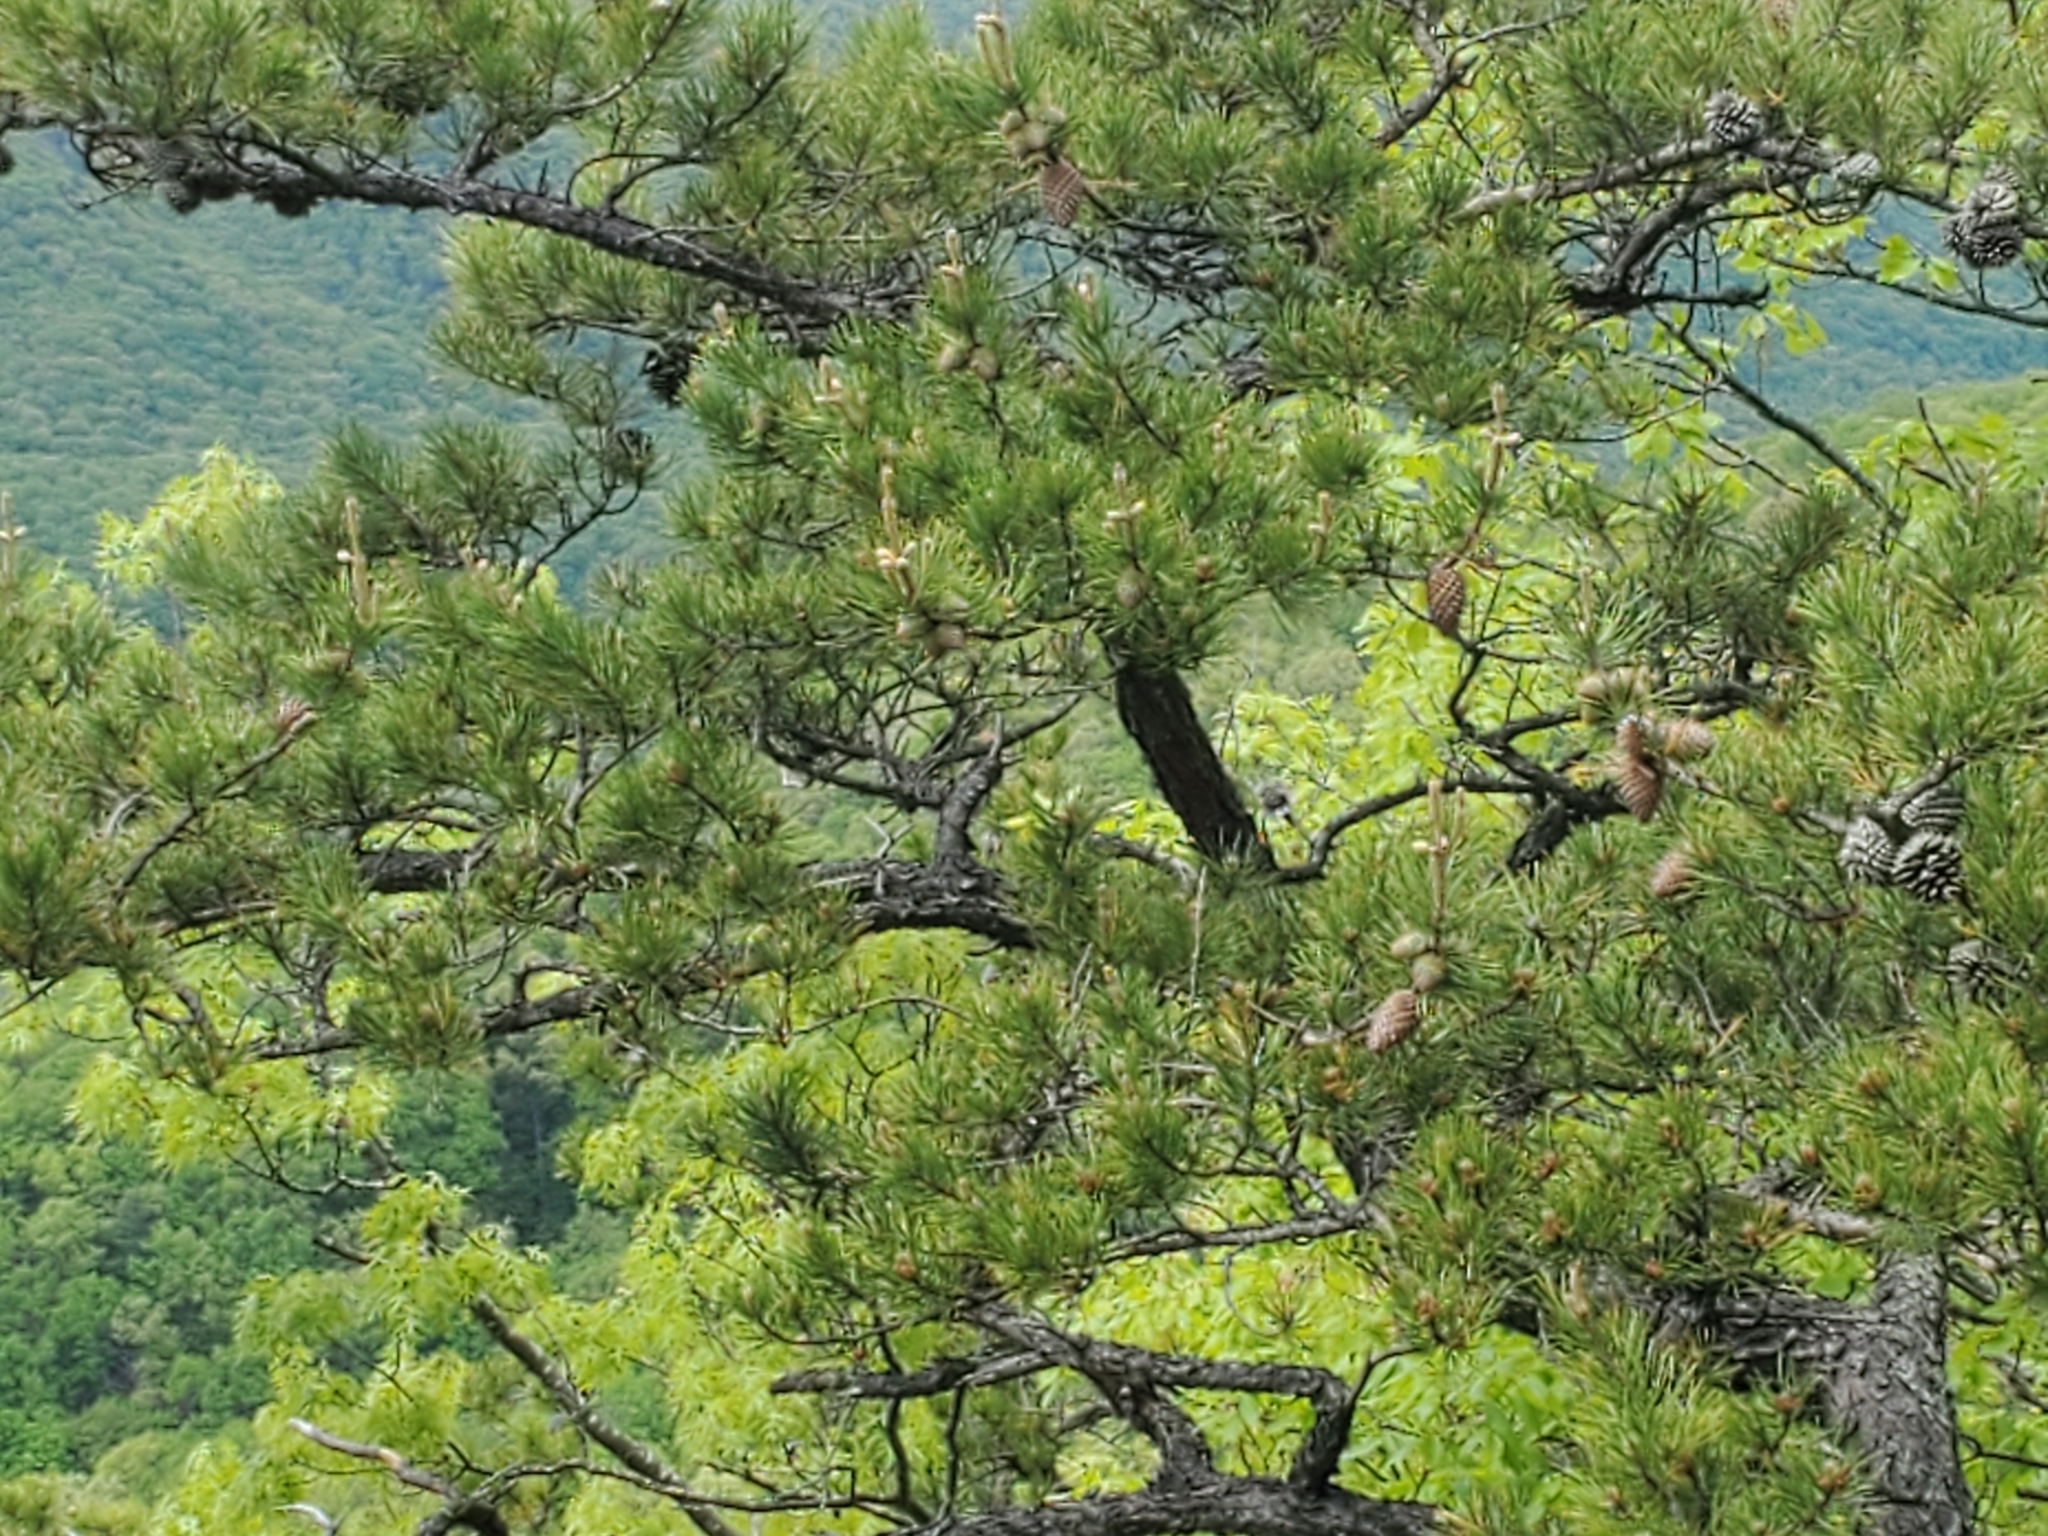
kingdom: Plantae
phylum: Tracheophyta
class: Pinopsida
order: Pinales
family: Pinaceae
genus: Pinus
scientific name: Pinus pungens
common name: Hickory pine
